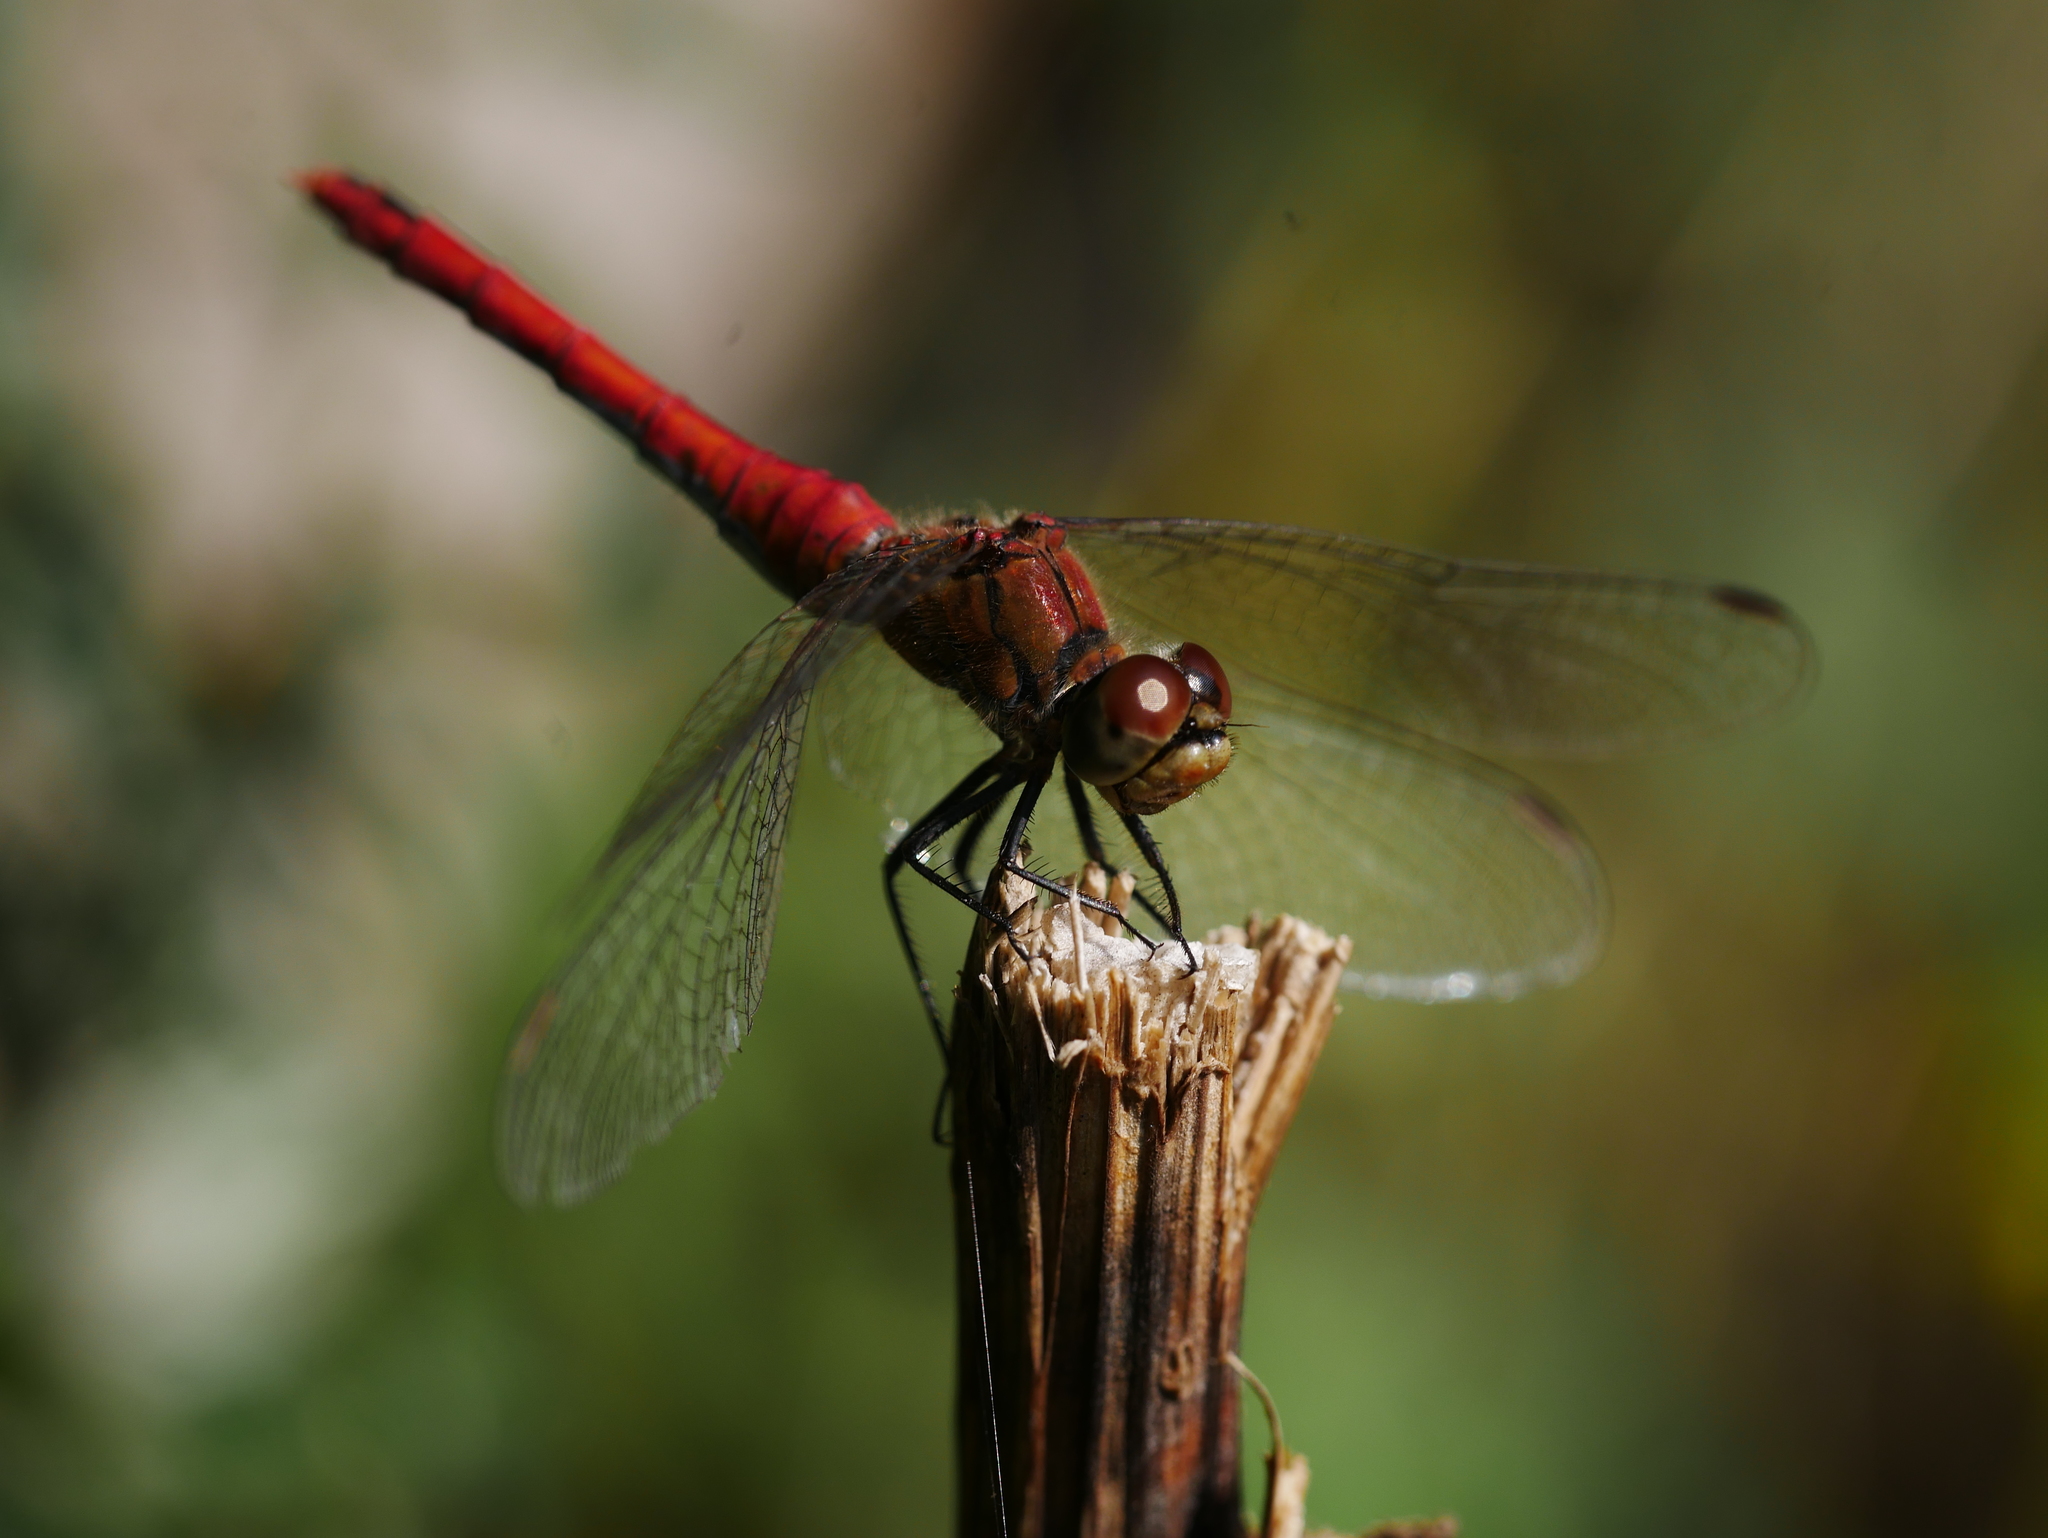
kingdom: Animalia
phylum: Arthropoda
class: Insecta
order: Odonata
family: Libellulidae
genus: Sympetrum
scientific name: Sympetrum sanguineum
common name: Ruddy darter
